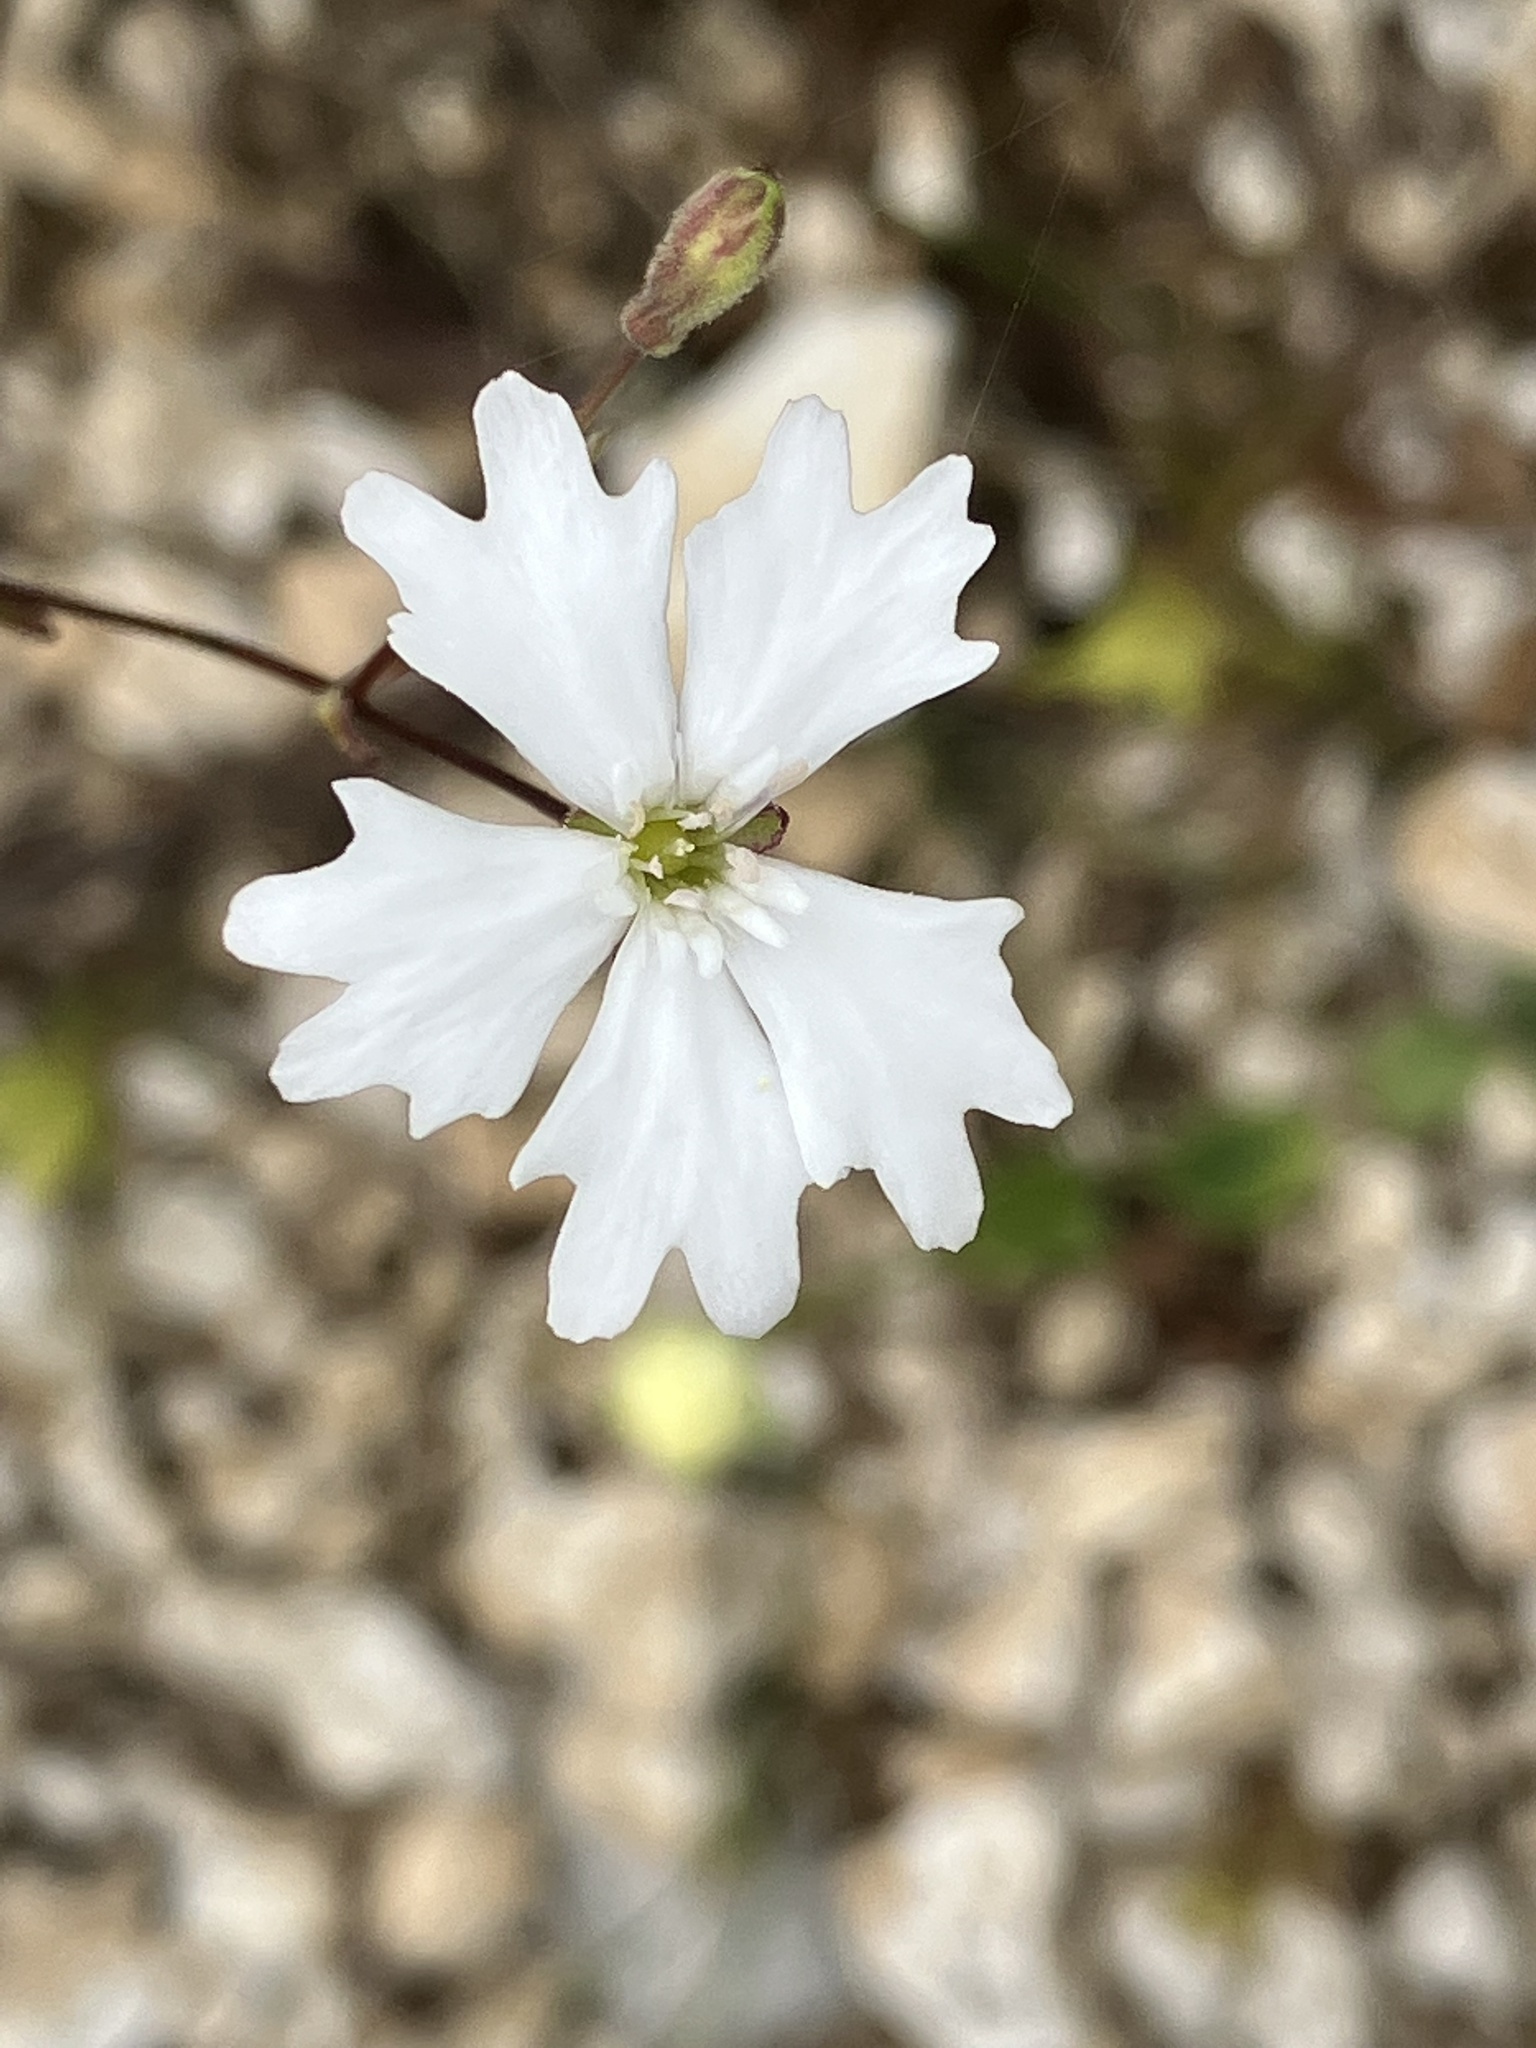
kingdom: Plantae
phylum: Tracheophyta
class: Magnoliopsida
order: Caryophyllales
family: Caryophyllaceae
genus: Heliosperma
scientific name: Heliosperma pusillum
